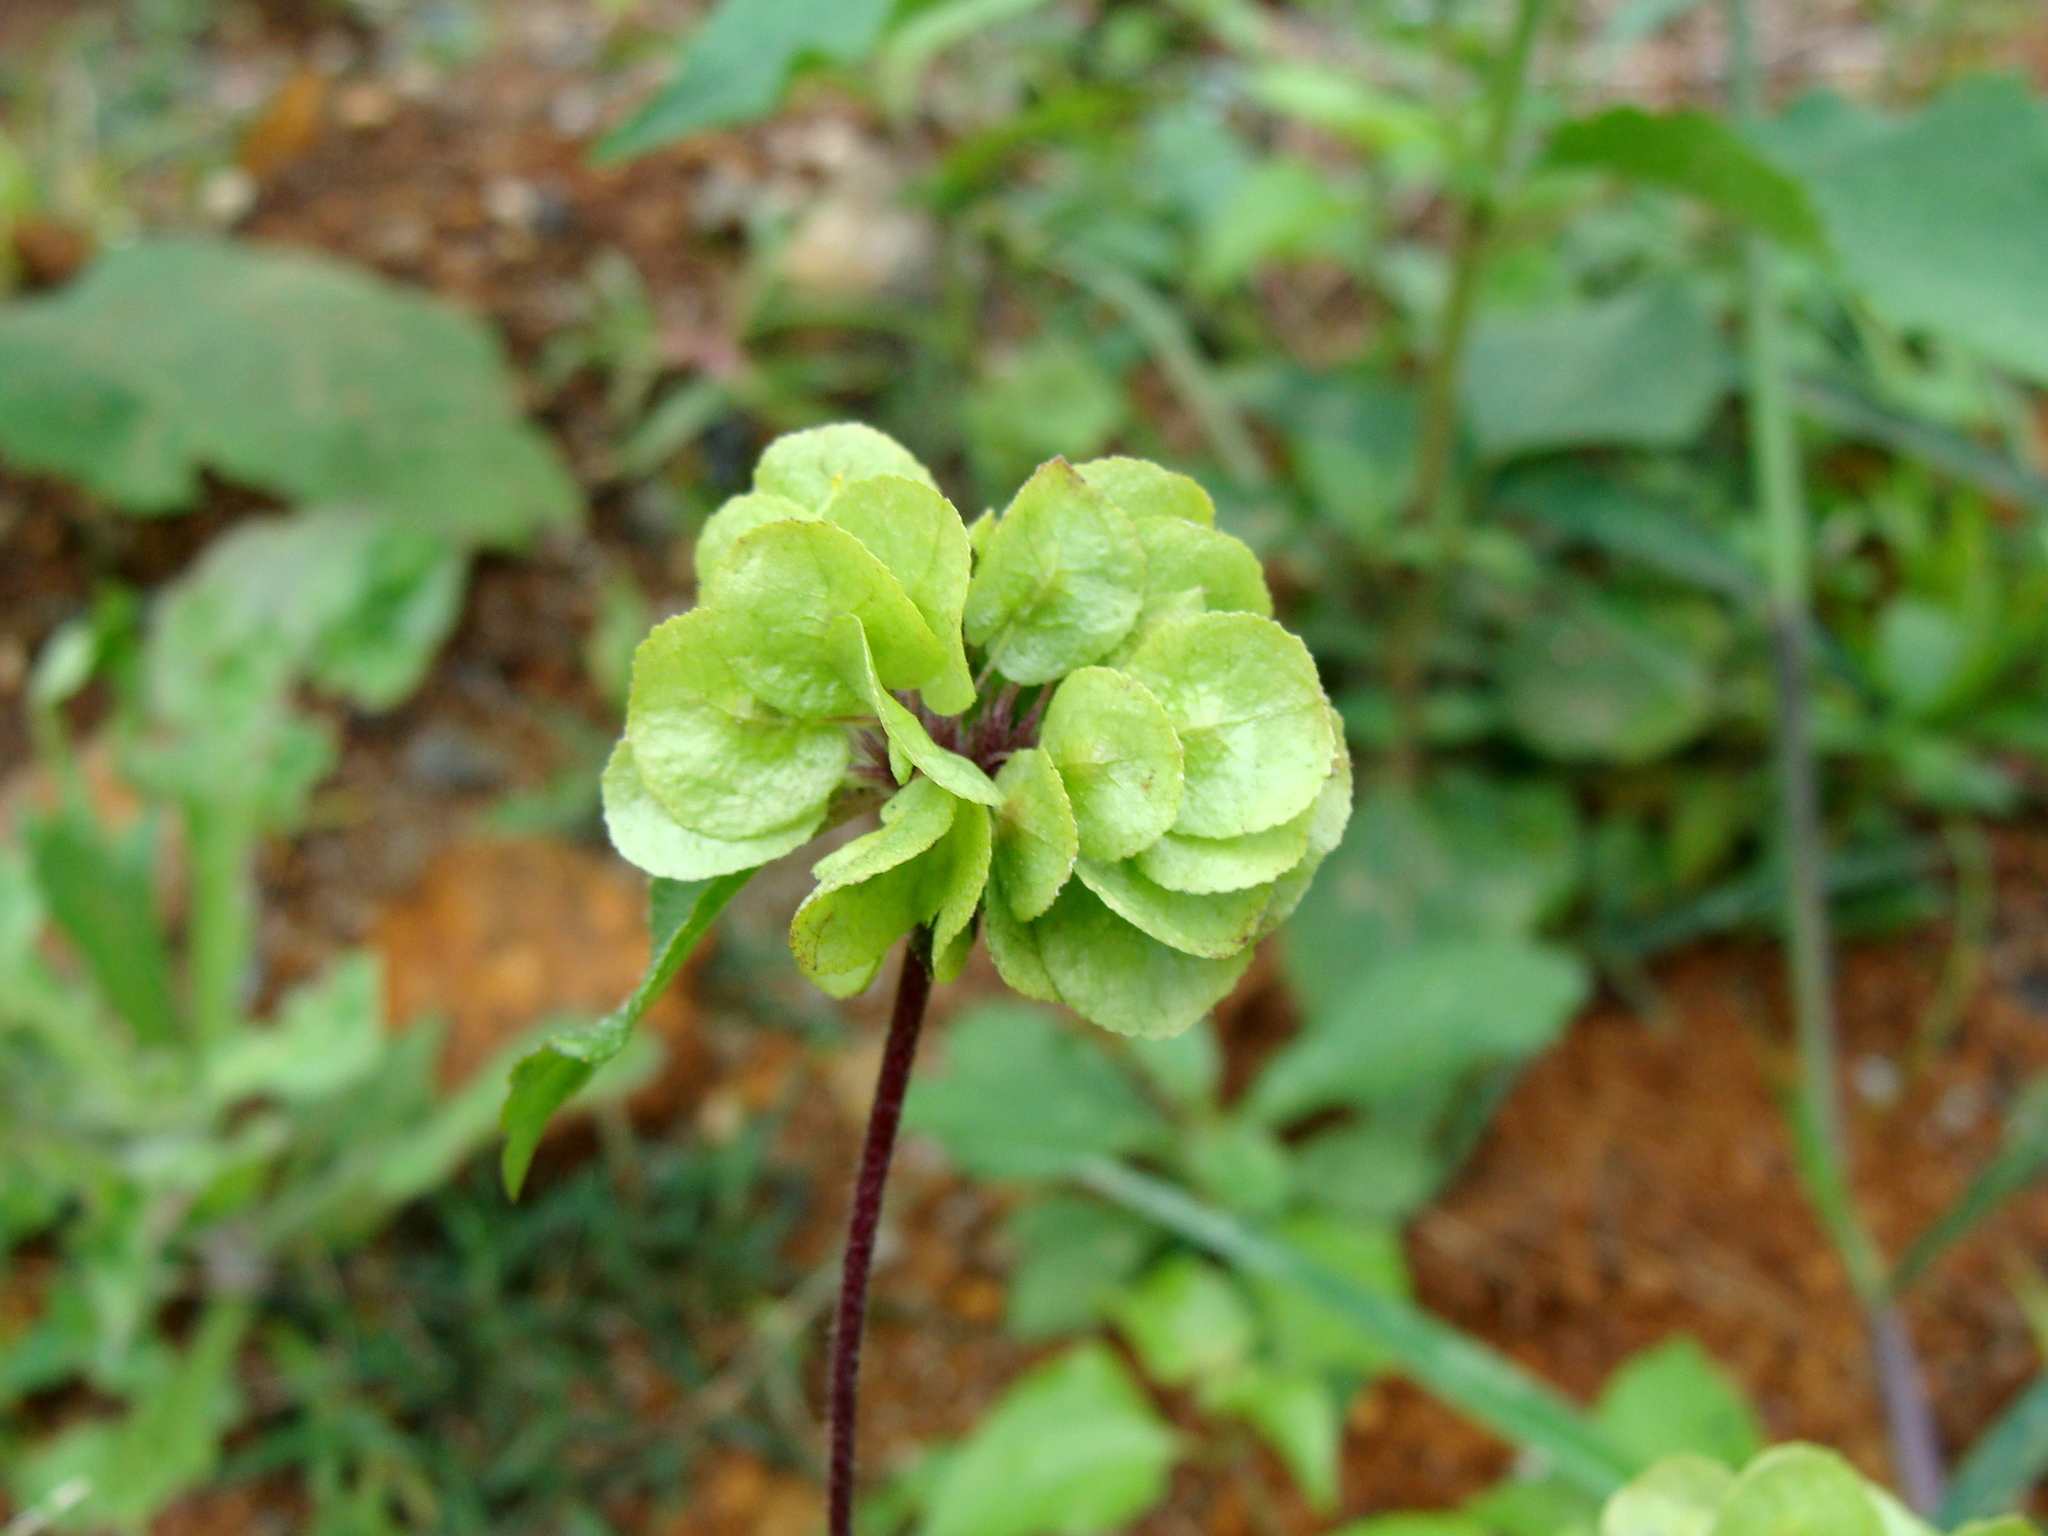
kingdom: Plantae
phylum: Tracheophyta
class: Magnoliopsida
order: Asterales
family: Asteraceae
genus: Delilia
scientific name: Delilia biflora
